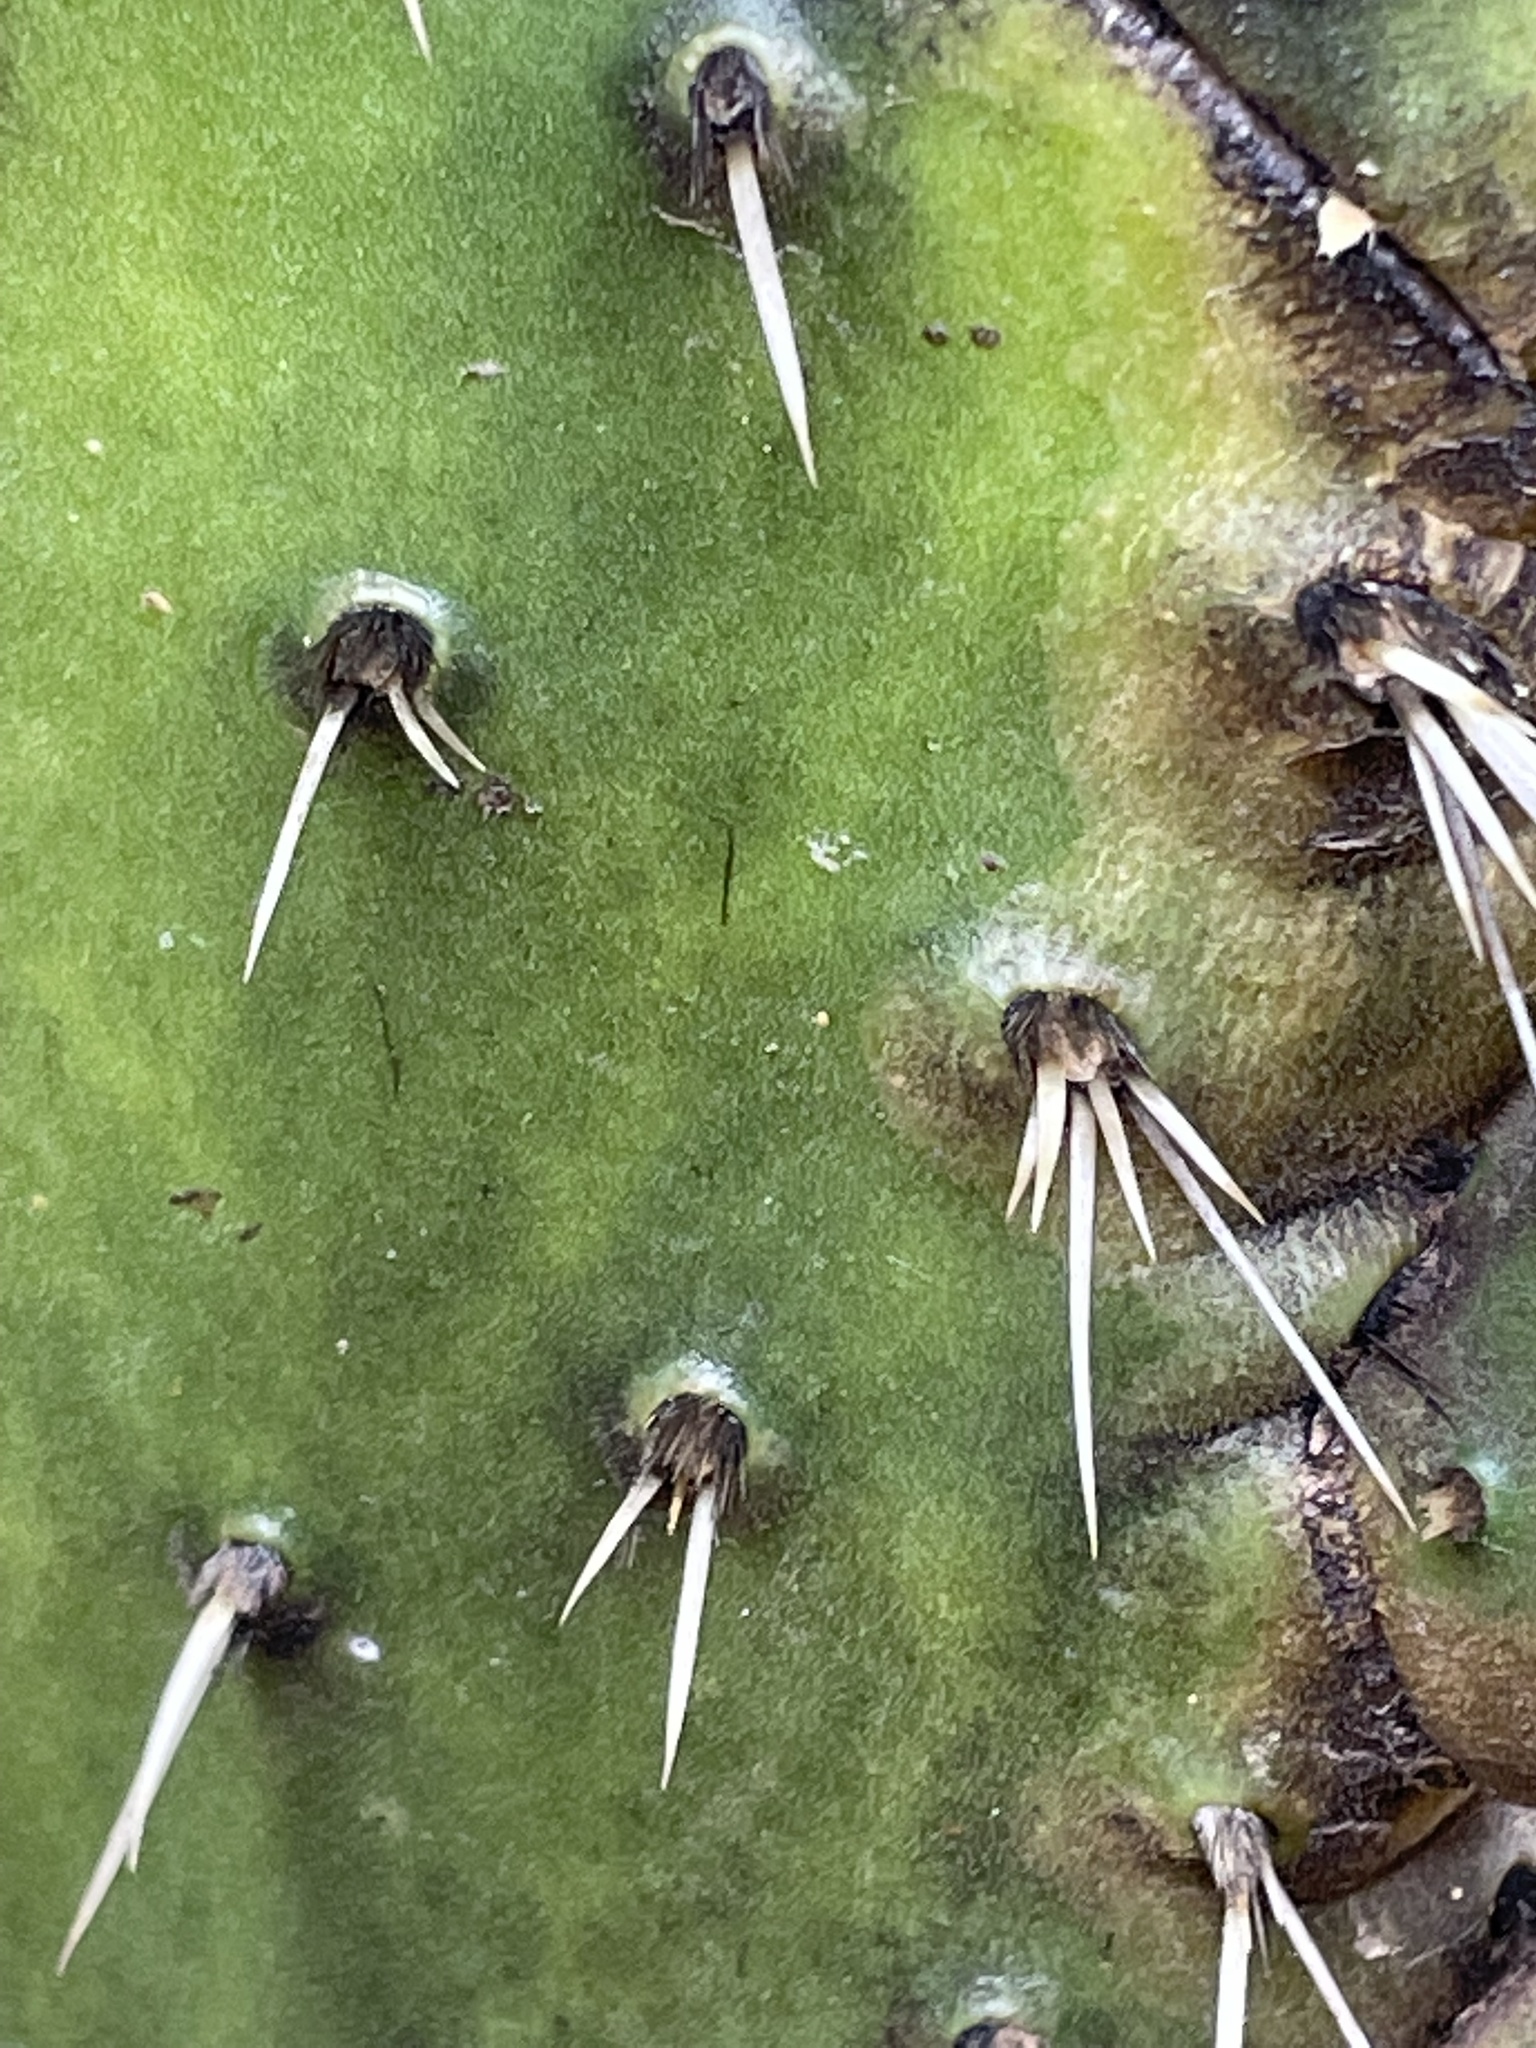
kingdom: Plantae
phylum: Tracheophyta
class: Magnoliopsida
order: Caryophyllales
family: Cactaceae
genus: Opuntia
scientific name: Opuntia tomentosa
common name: Woollyjoint pricklypear
